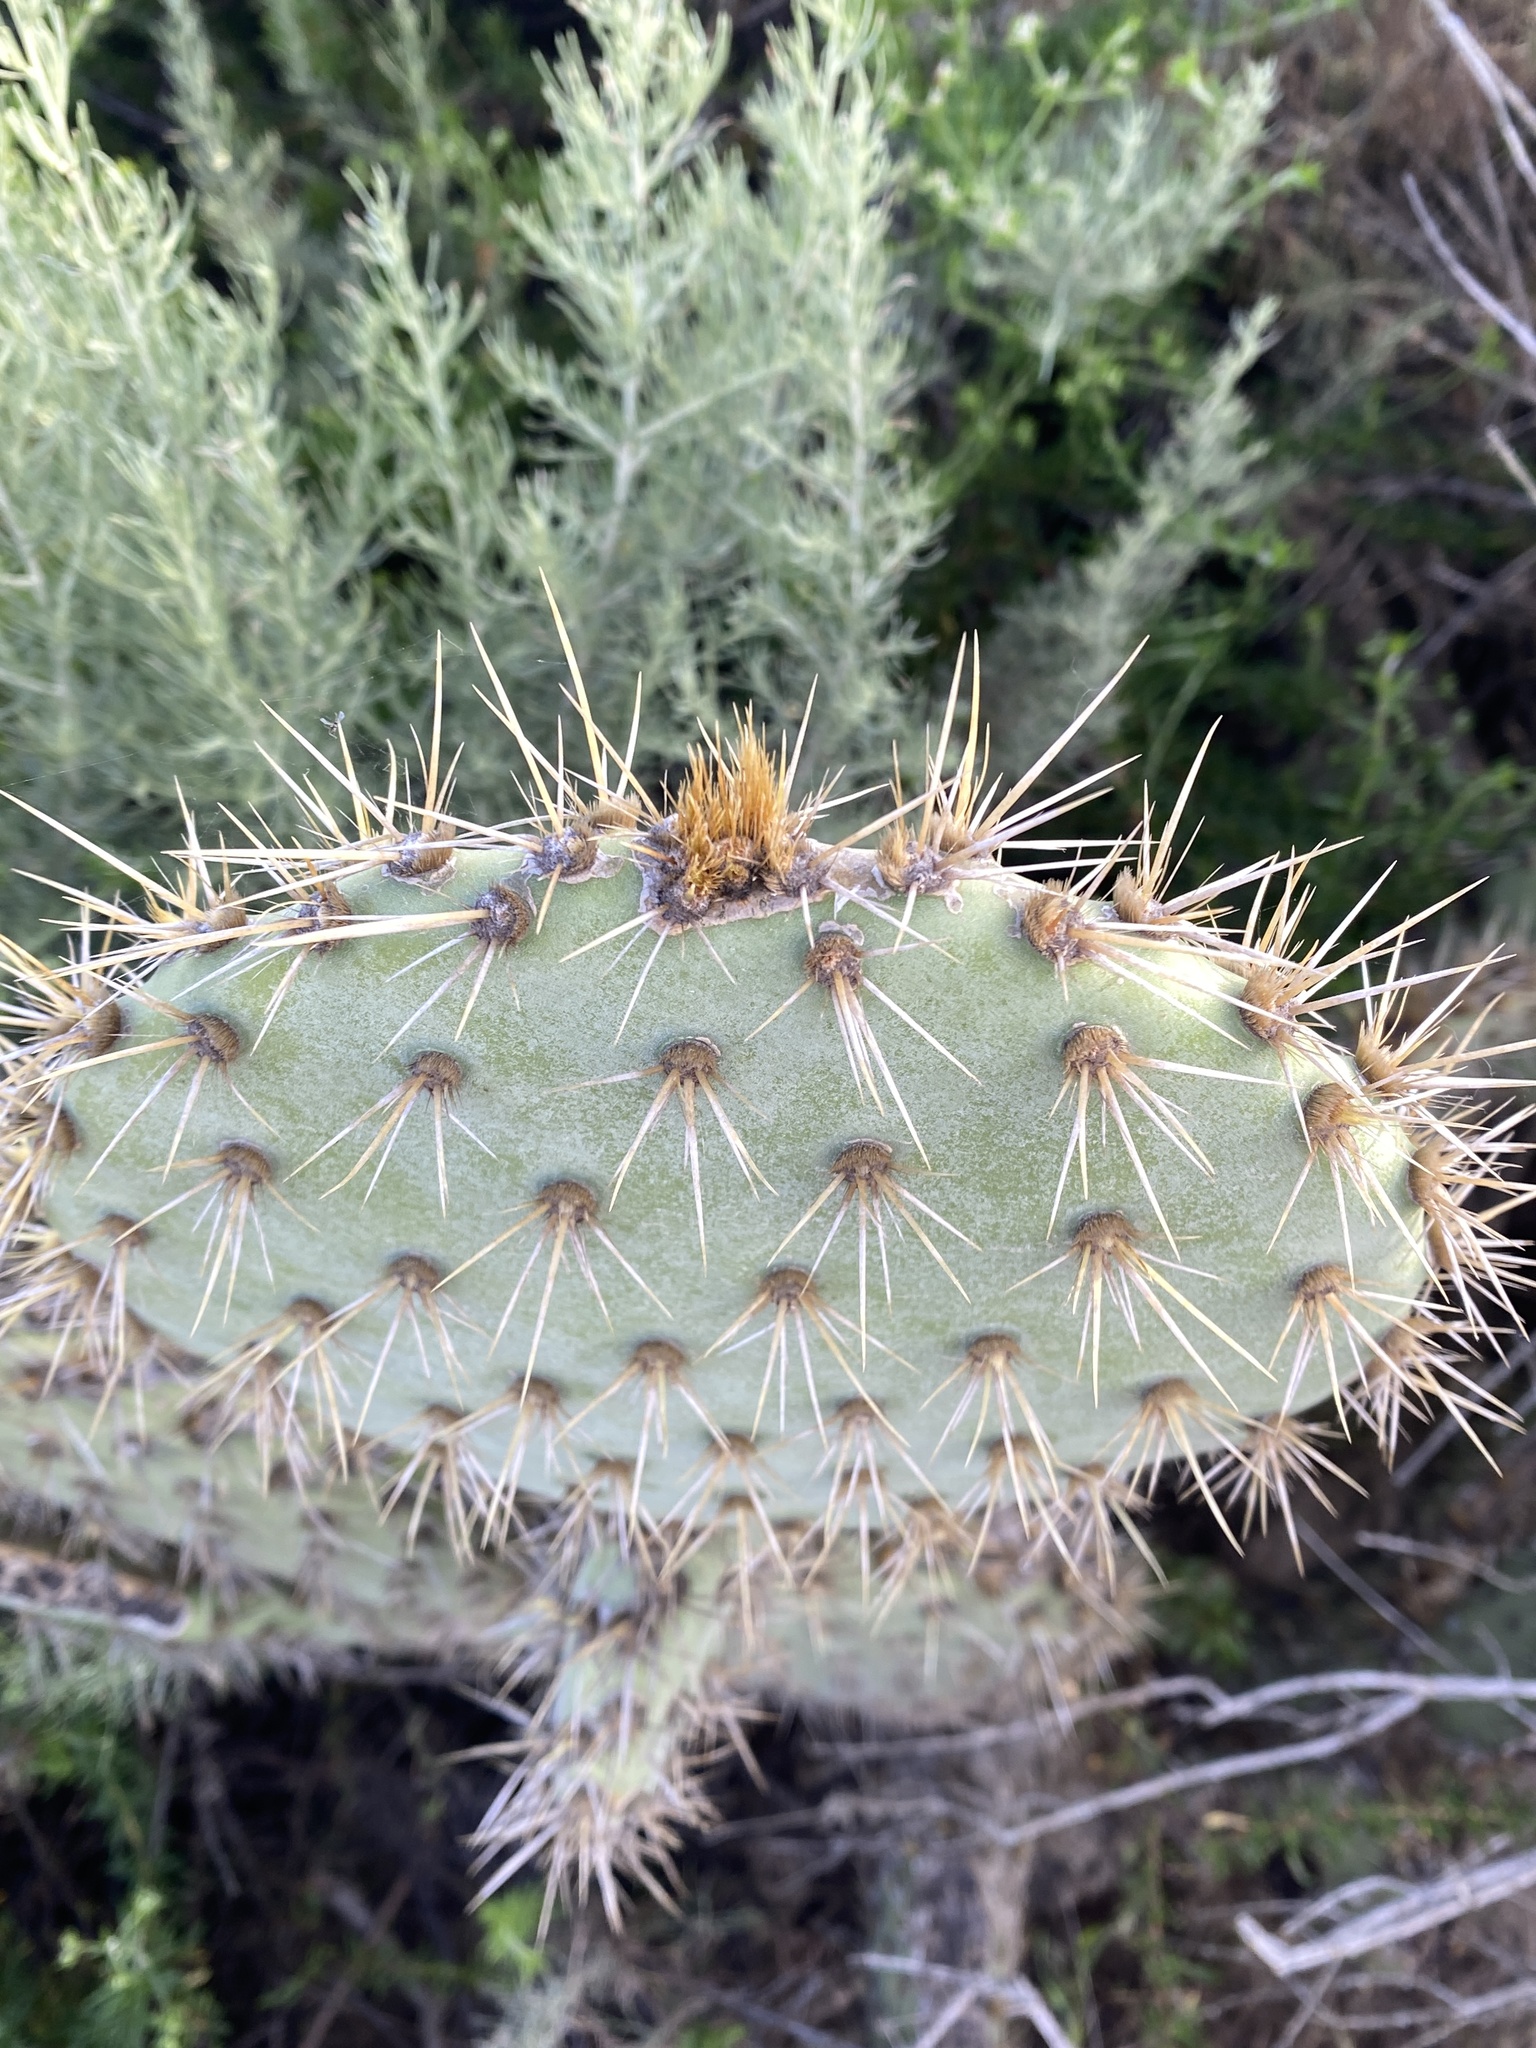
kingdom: Plantae
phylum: Tracheophyta
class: Magnoliopsida
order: Caryophyllales
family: Cactaceae
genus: Opuntia
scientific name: Opuntia oricola
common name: Chaparral prickly-pear
